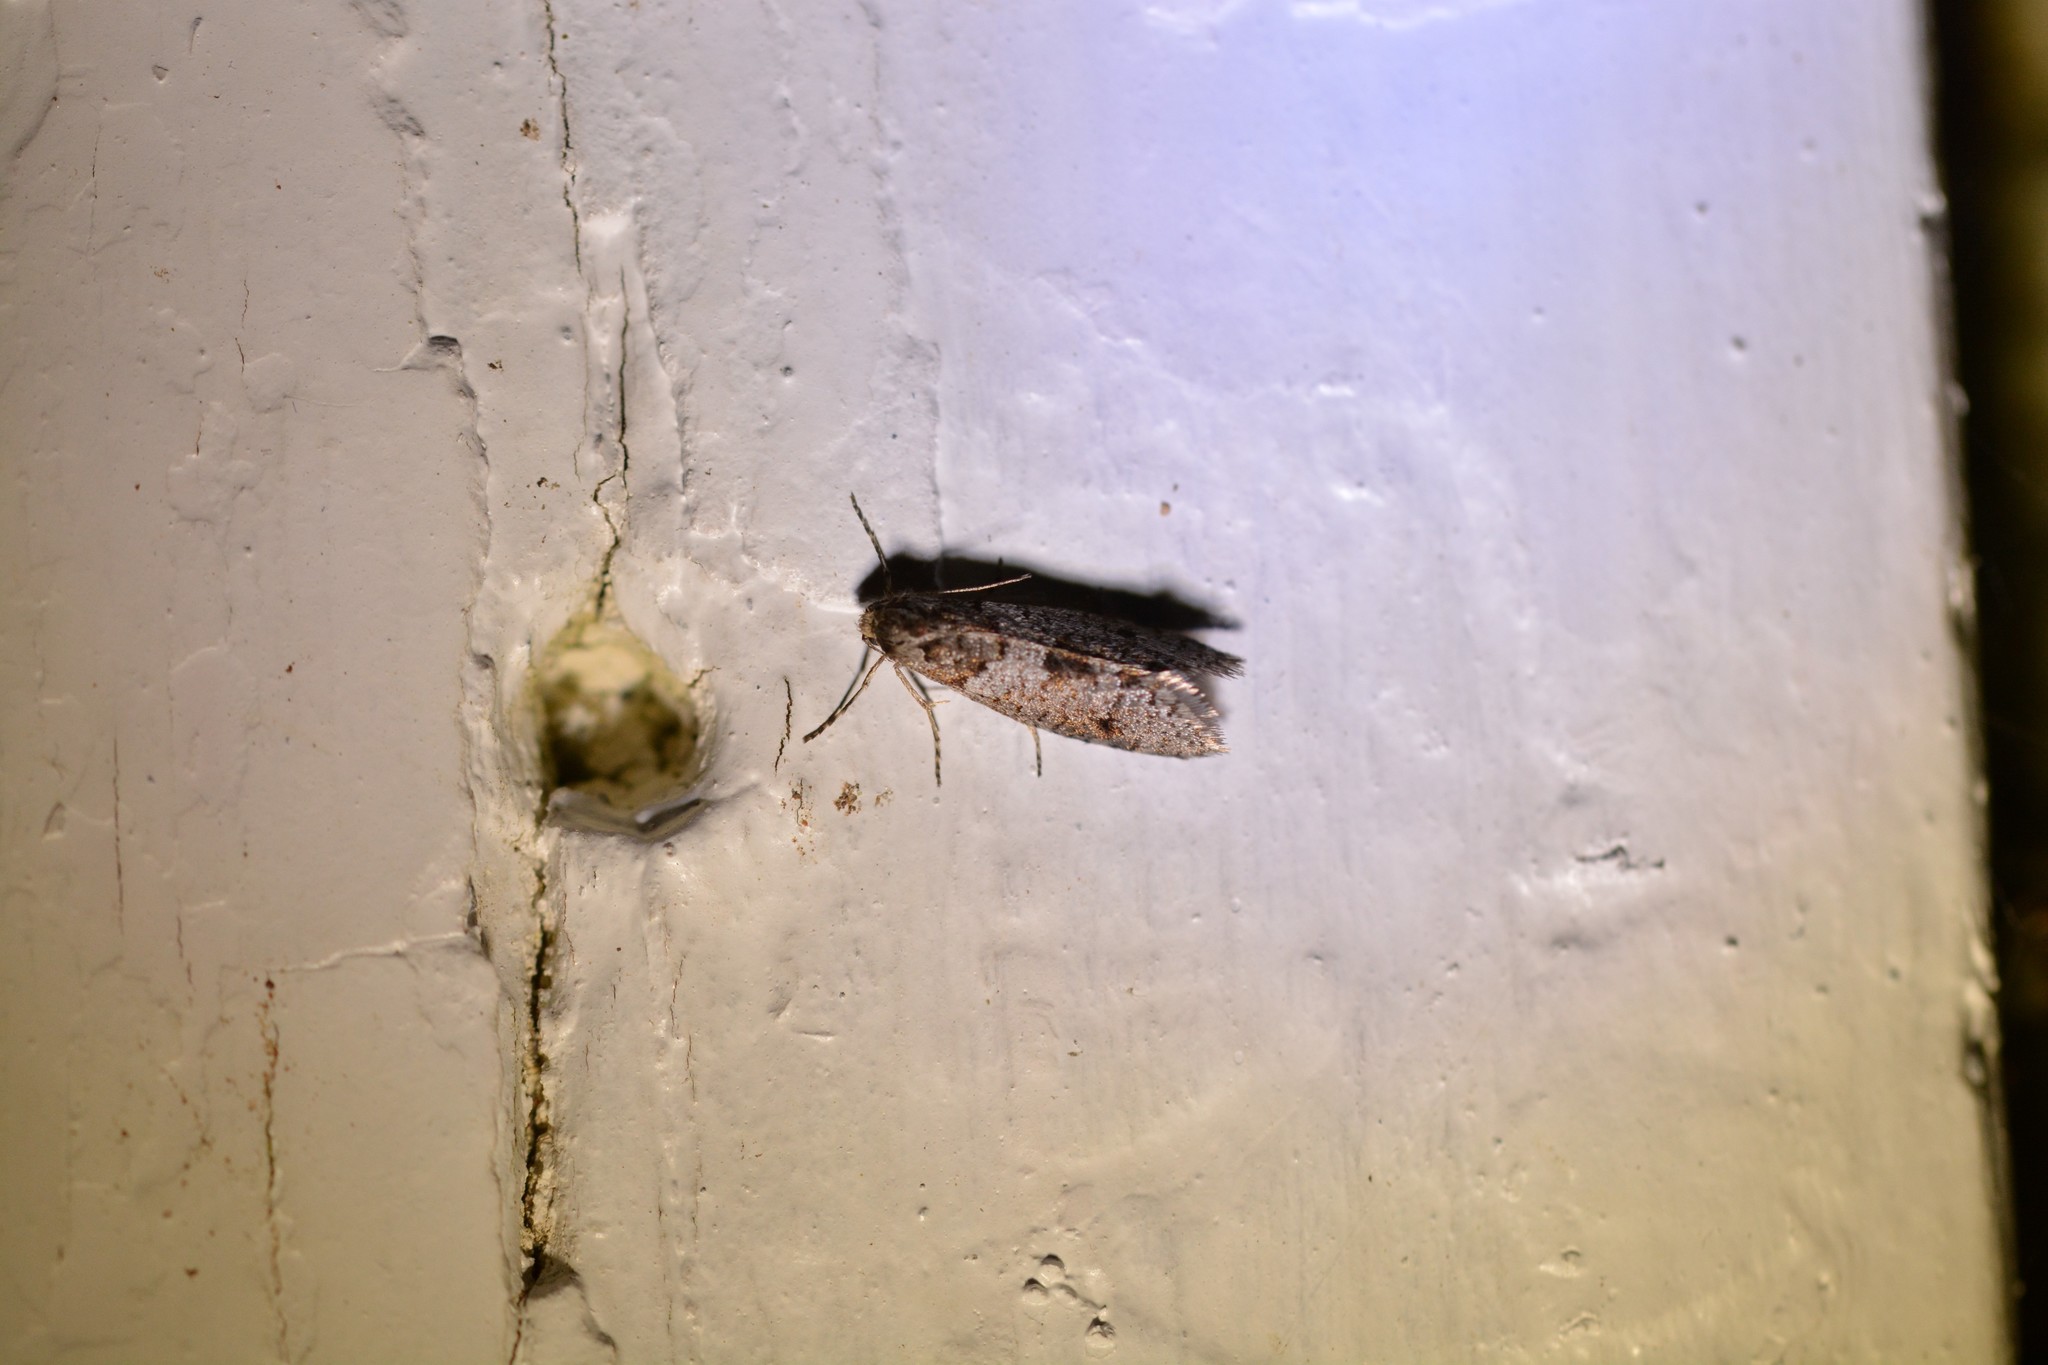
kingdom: Animalia
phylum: Arthropoda
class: Insecta
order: Lepidoptera
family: Psychidae
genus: Lepidoscia
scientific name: Lepidoscia heliochares
